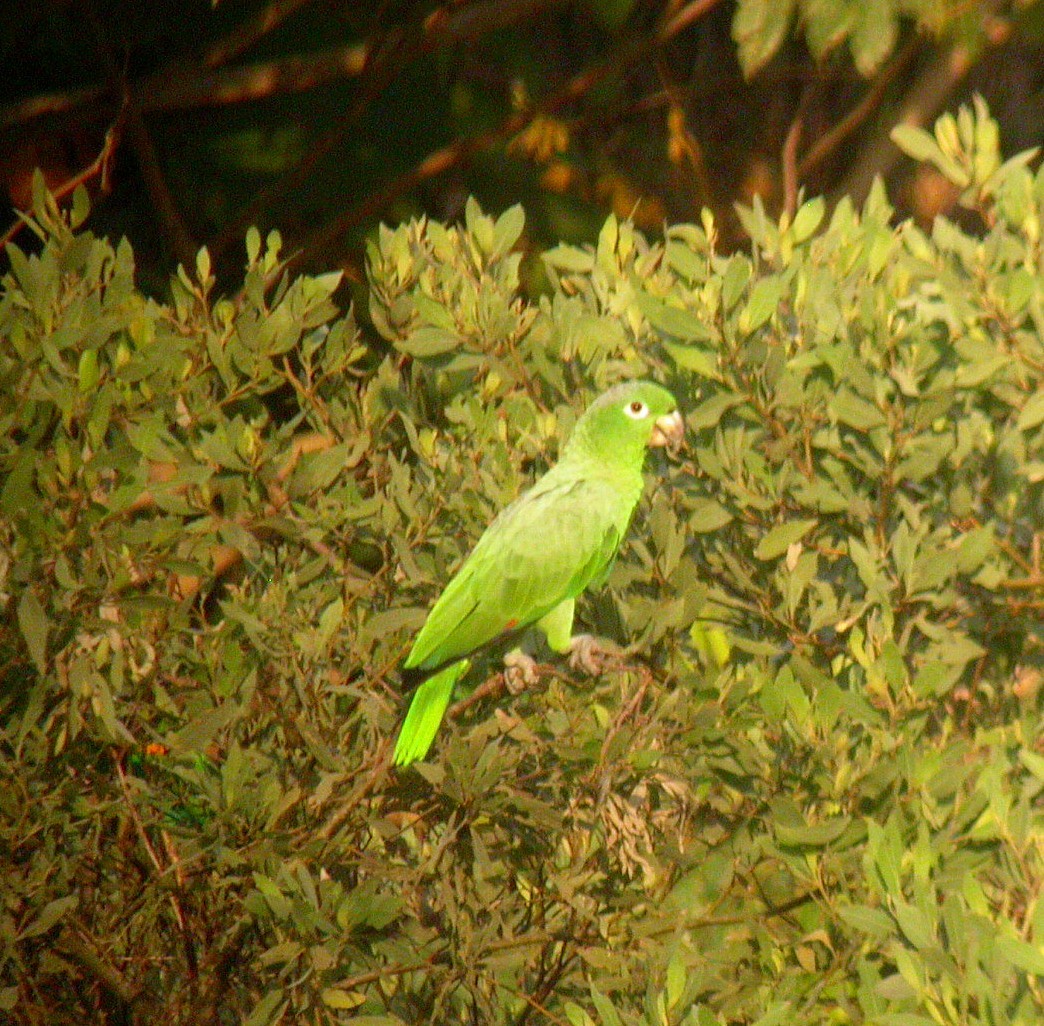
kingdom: Animalia
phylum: Chordata
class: Aves
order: Psittaciformes
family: Psittacidae
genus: Amazona
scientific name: Amazona farinosa
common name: Mealy parrot
